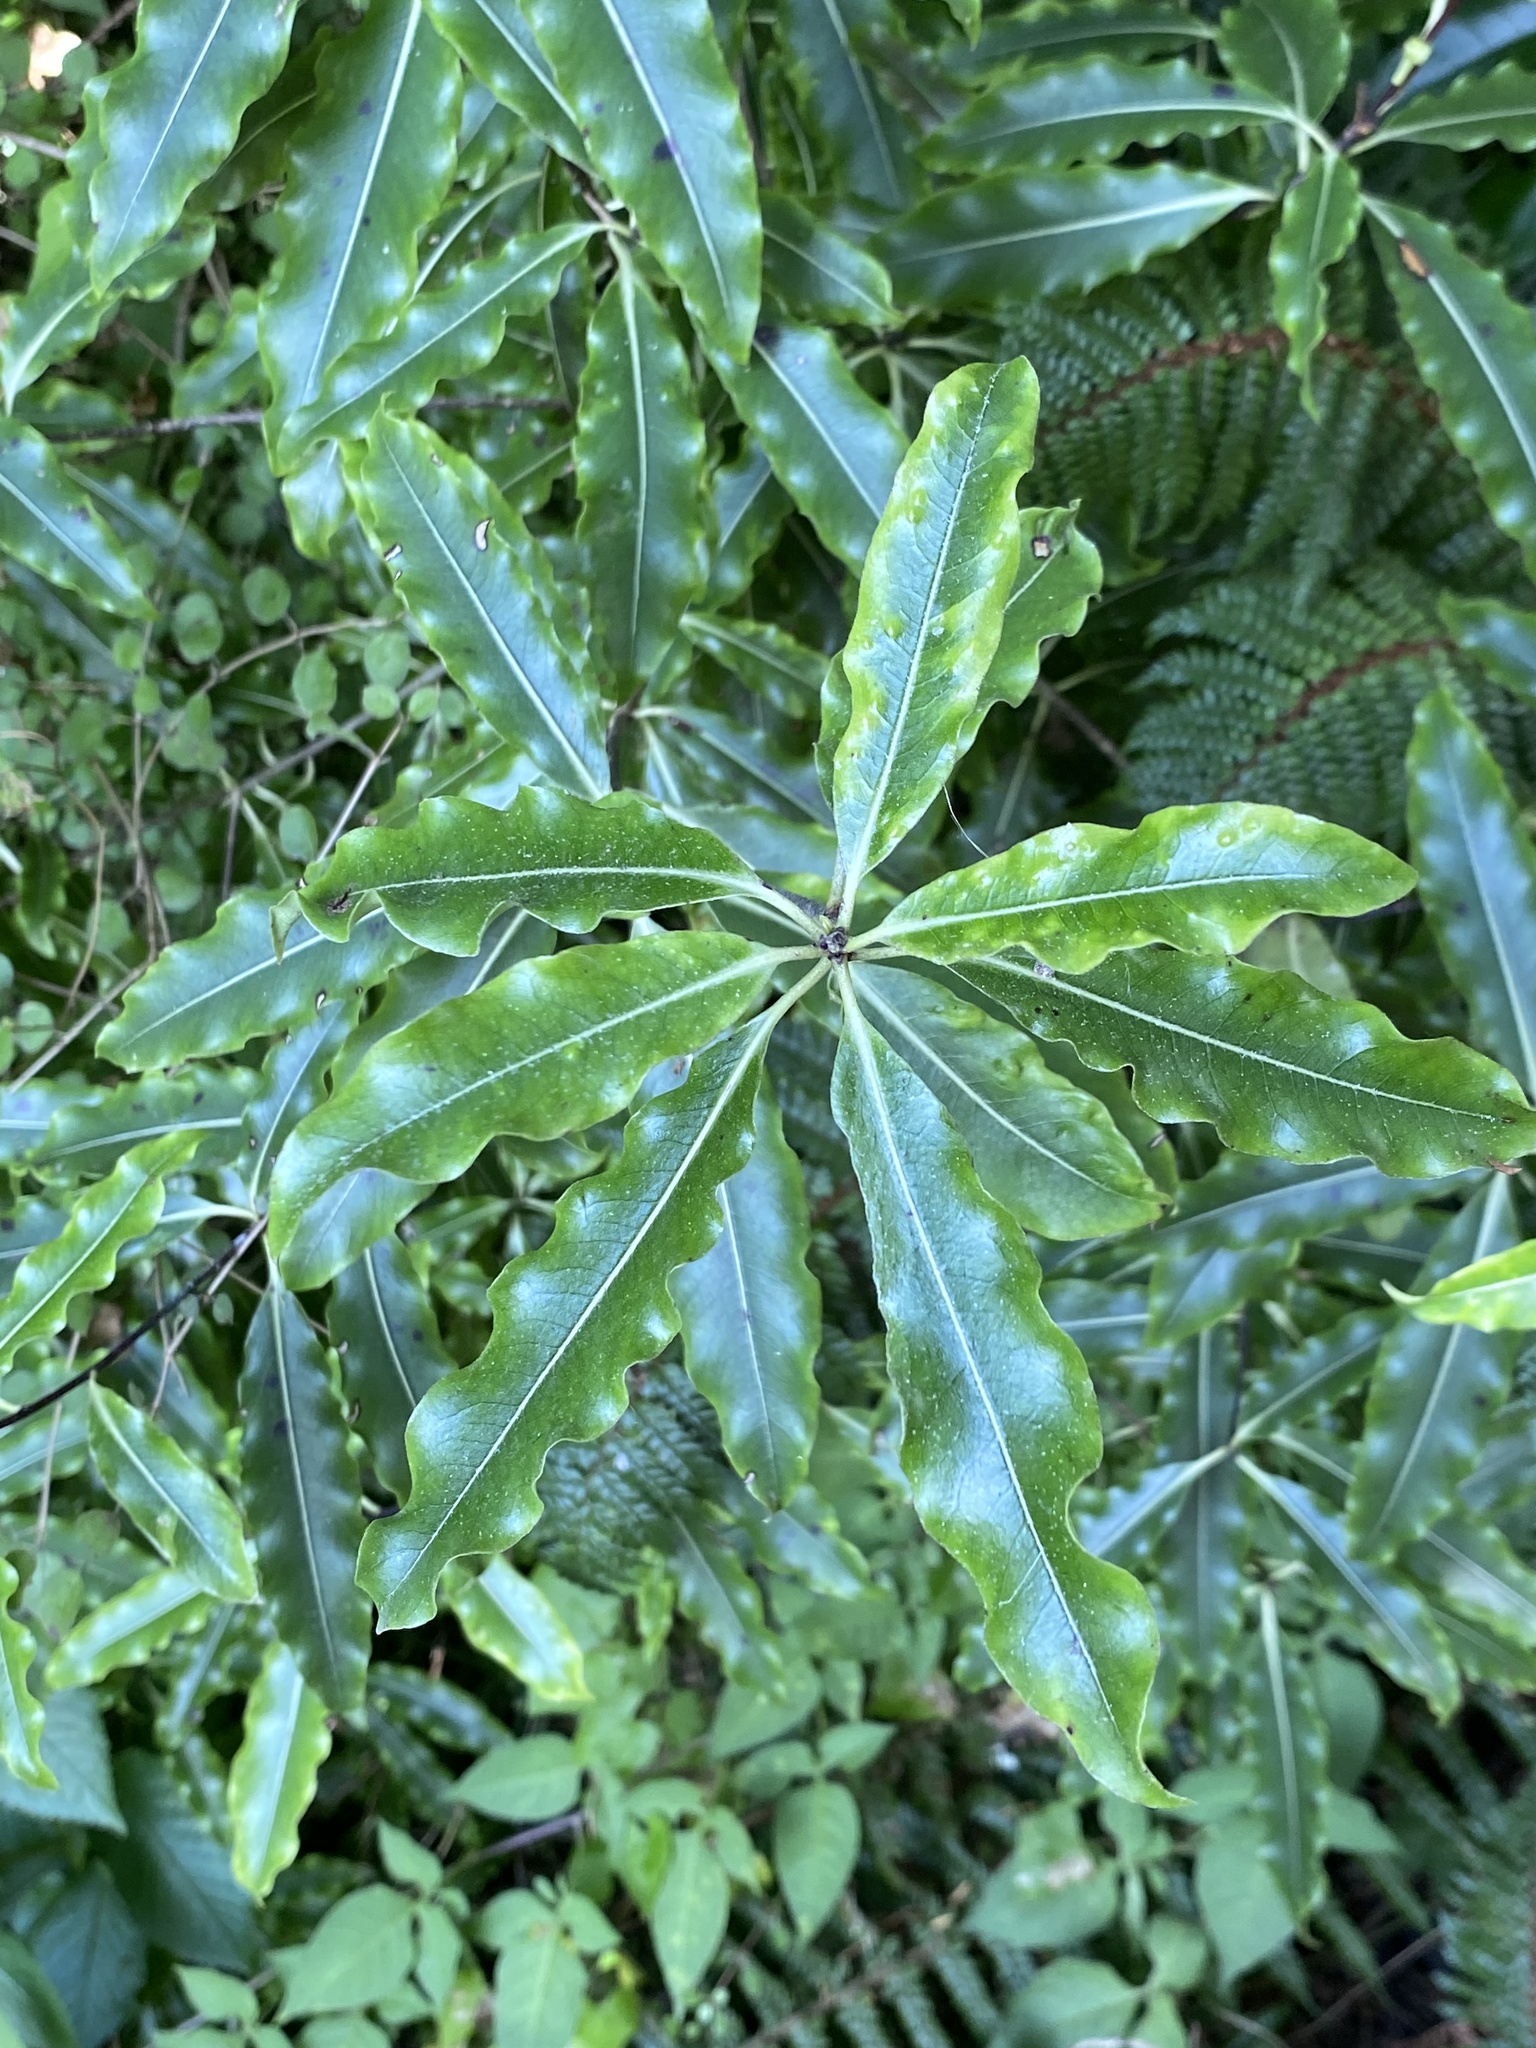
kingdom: Plantae
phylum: Tracheophyta
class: Magnoliopsida
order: Apiales
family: Pittosporaceae
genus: Pittosporum
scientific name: Pittosporum eugenioides
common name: Lemonwood
